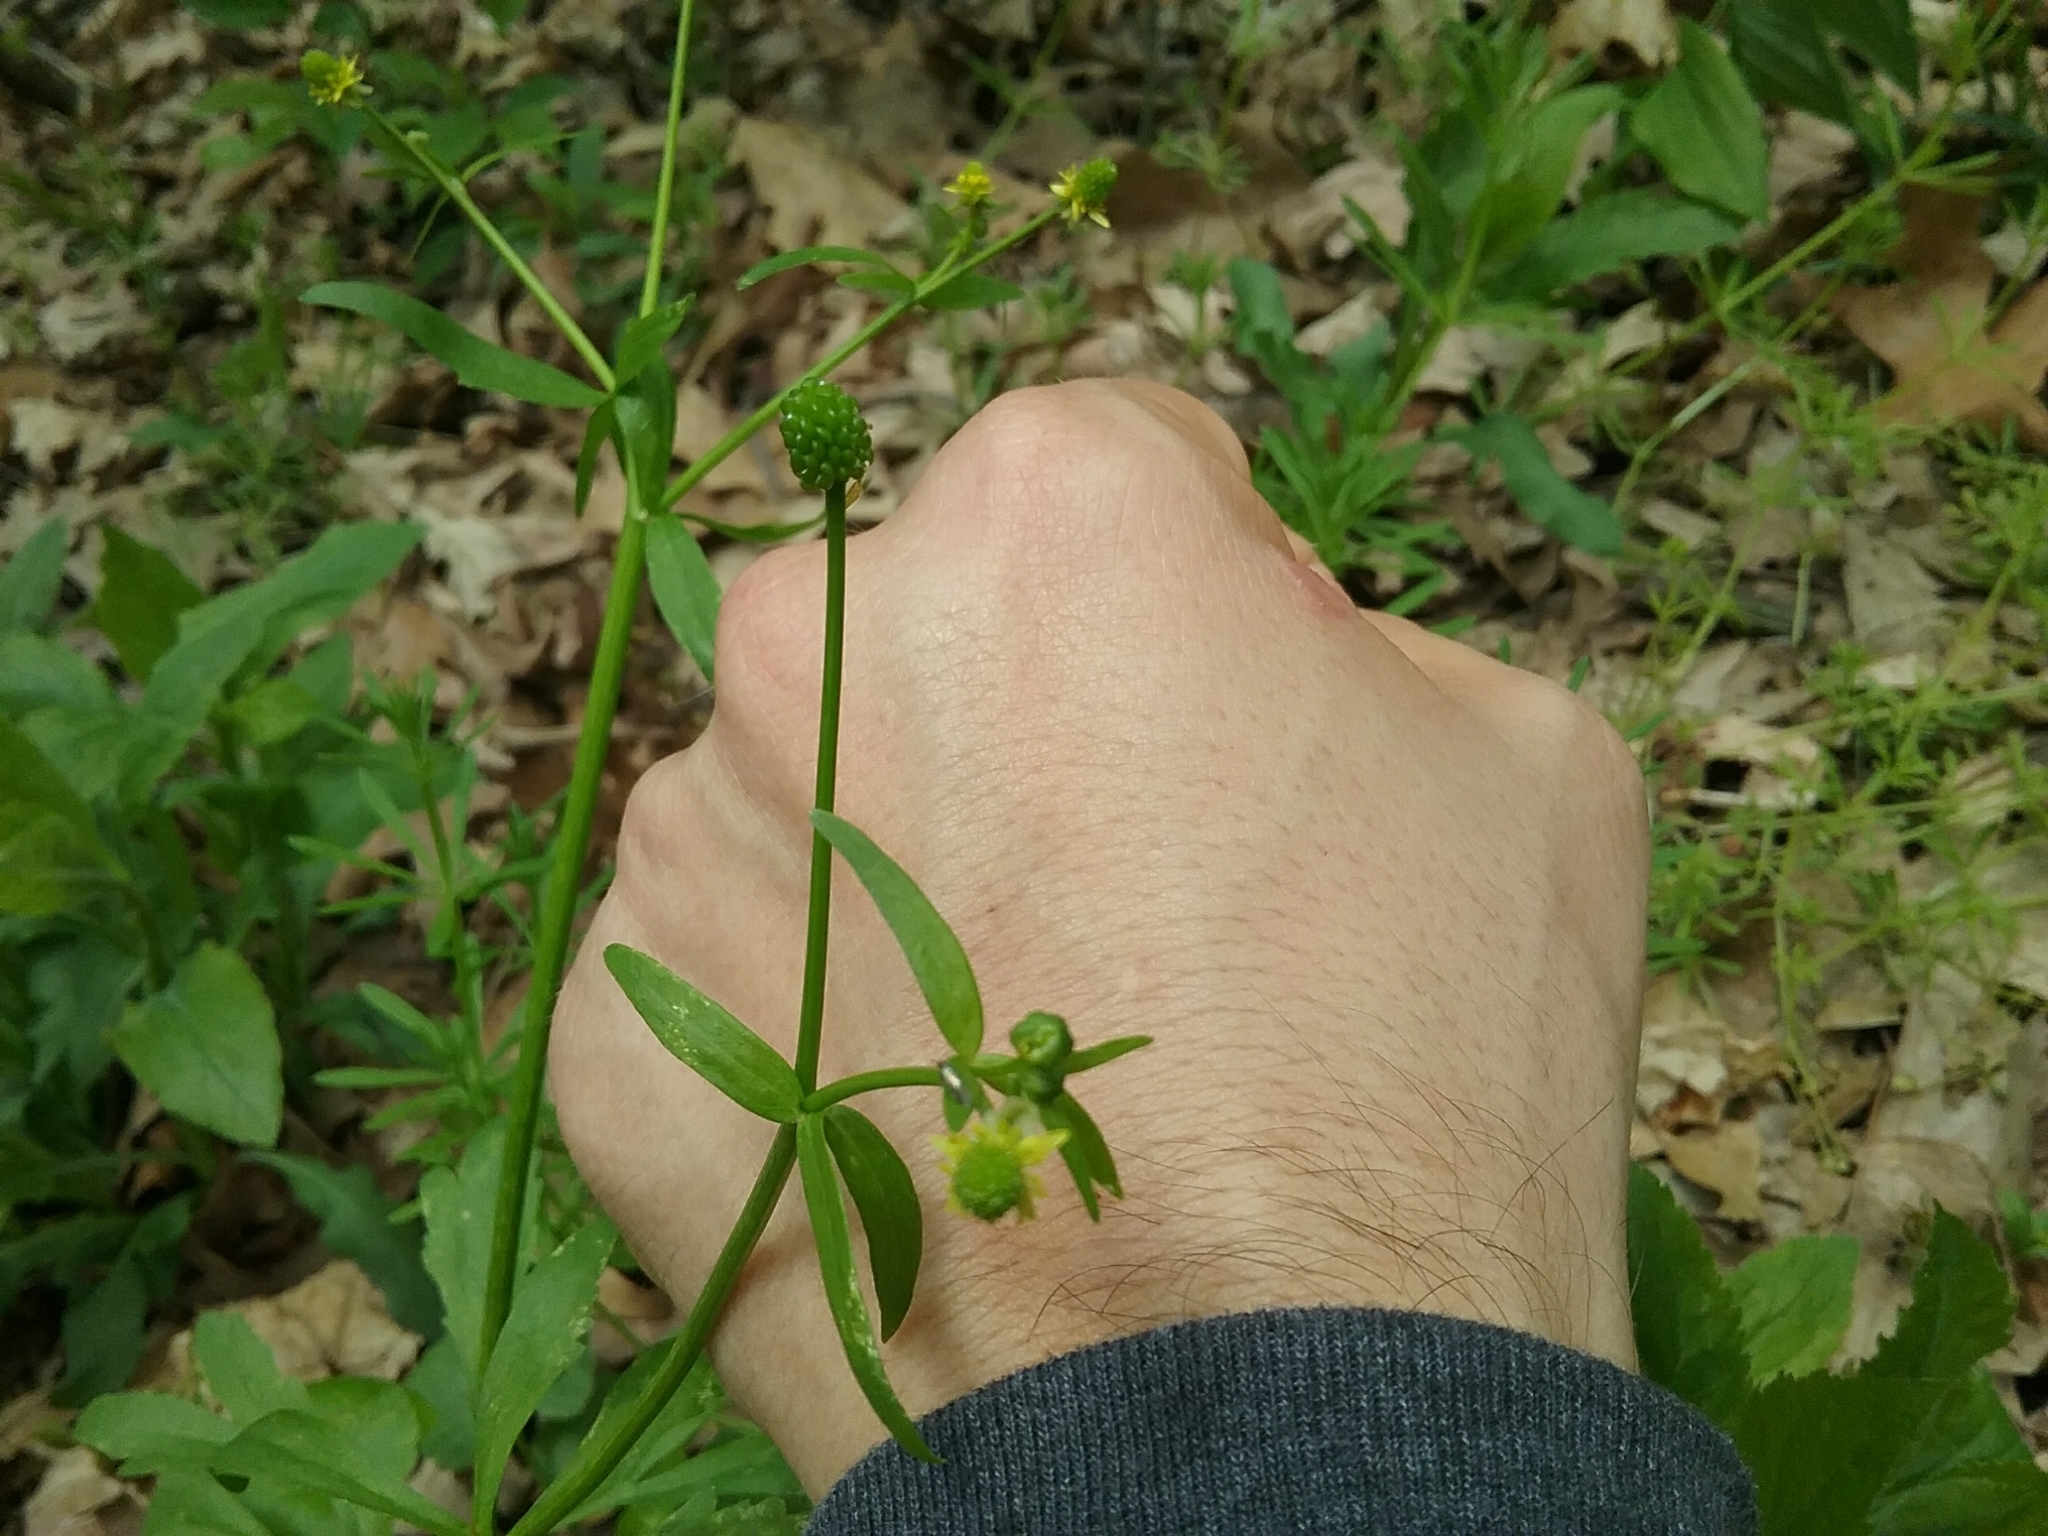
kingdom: Plantae
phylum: Tracheophyta
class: Magnoliopsida
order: Ranunculales
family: Ranunculaceae
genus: Ranunculus
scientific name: Ranunculus abortivus
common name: Early wood buttercup
